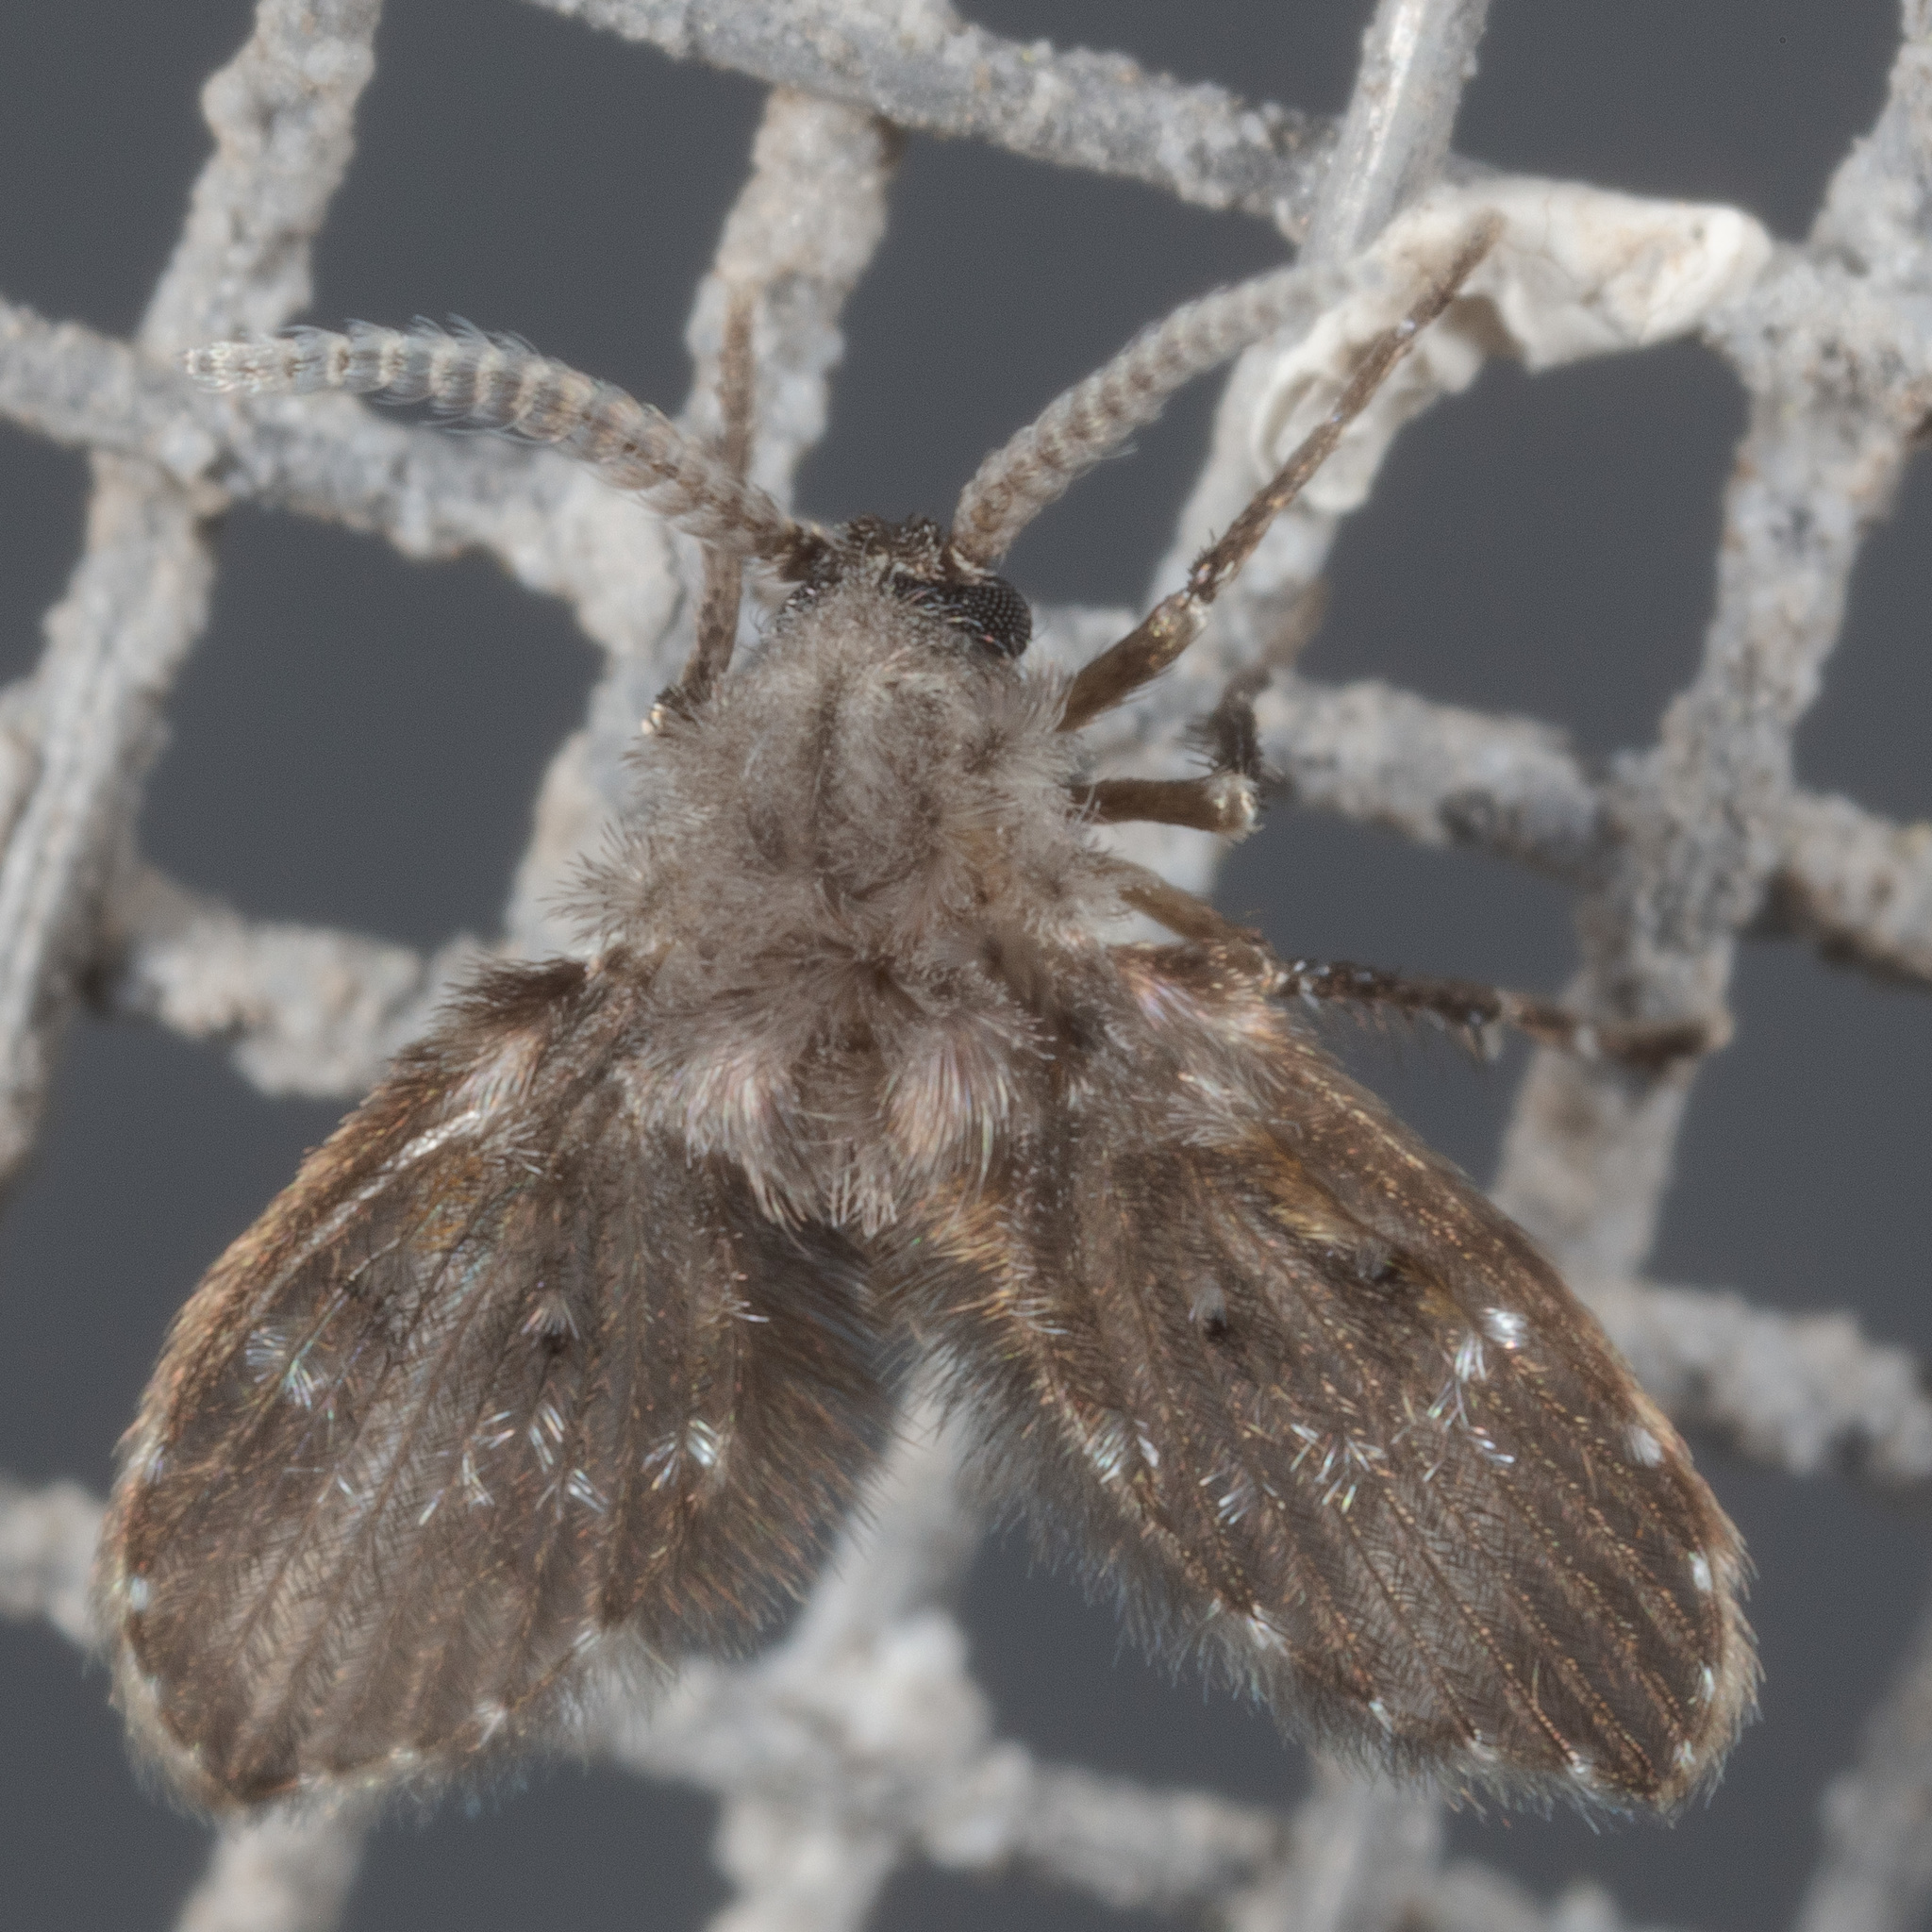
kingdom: Animalia
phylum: Arthropoda
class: Insecta
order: Diptera
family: Psychodidae
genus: Clogmia
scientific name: Clogmia albipunctatus
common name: White-spotted moth fly
